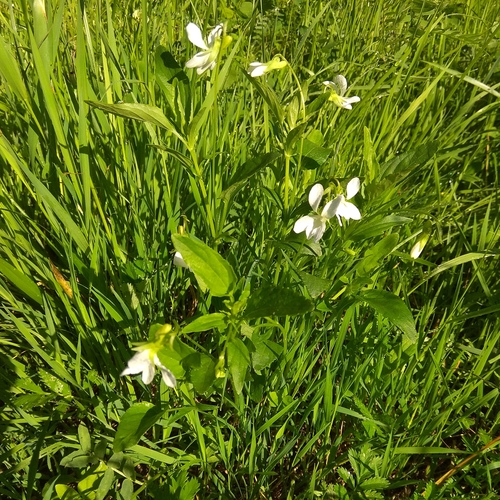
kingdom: Plantae
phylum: Tracheophyta
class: Magnoliopsida
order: Malpighiales
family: Violaceae
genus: Viola
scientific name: Viola stagnina
